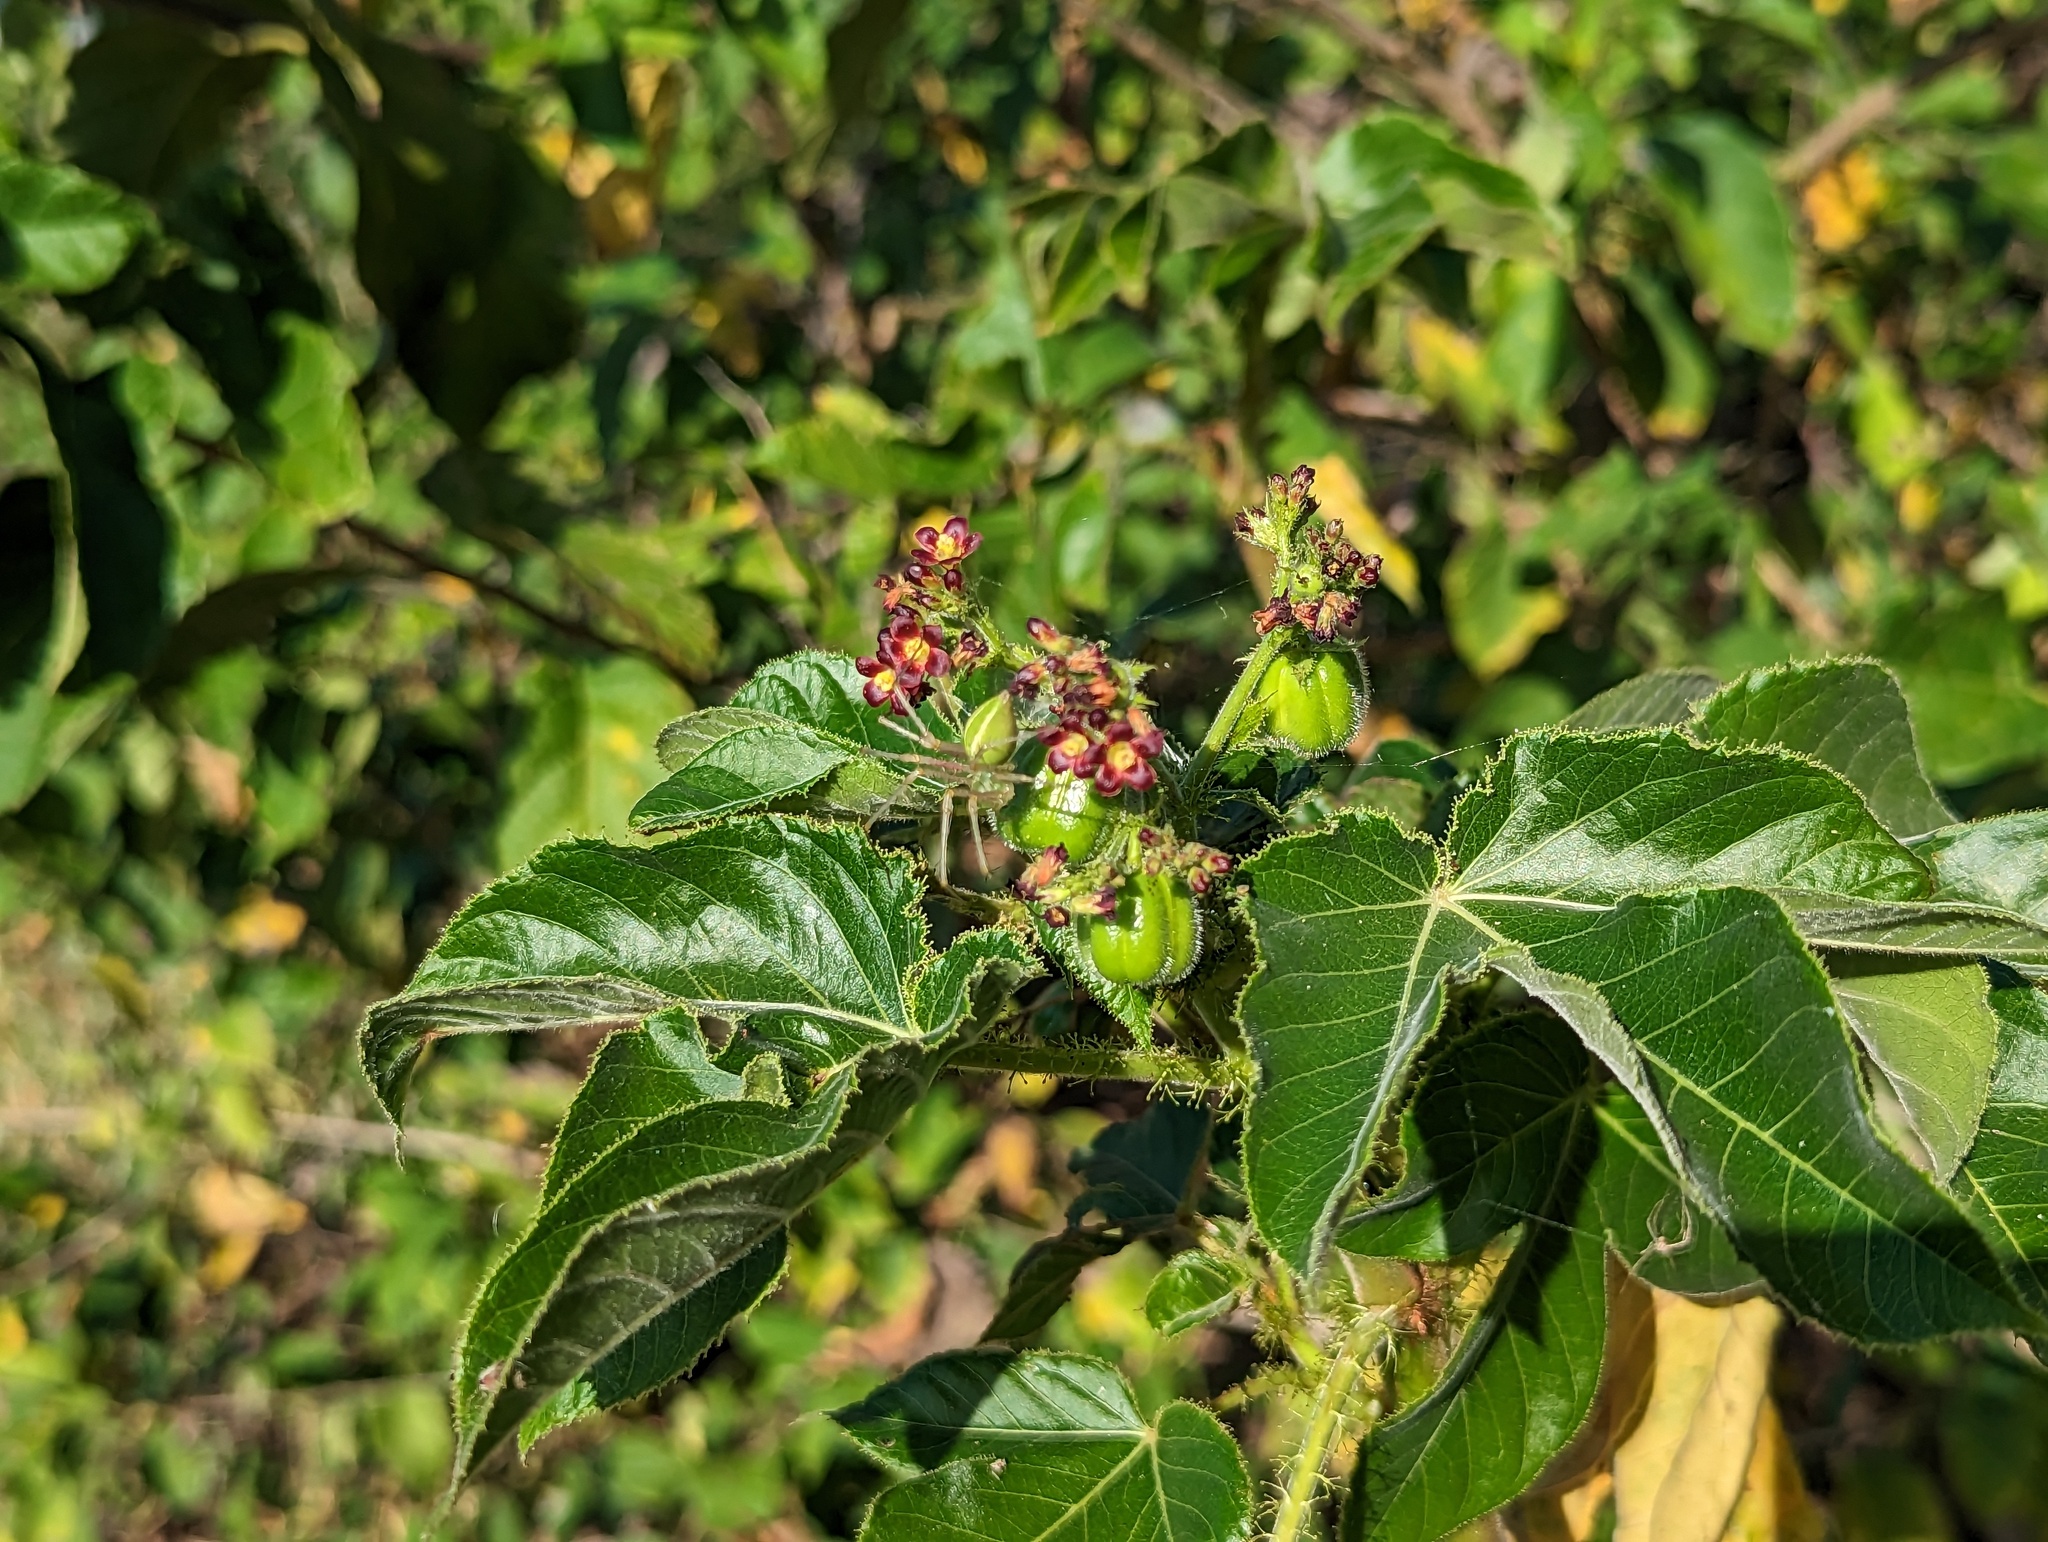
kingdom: Plantae
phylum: Tracheophyta
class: Magnoliopsida
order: Malpighiales
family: Euphorbiaceae
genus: Jatropha
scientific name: Jatropha gossypiifolia
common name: Bellyache bush
